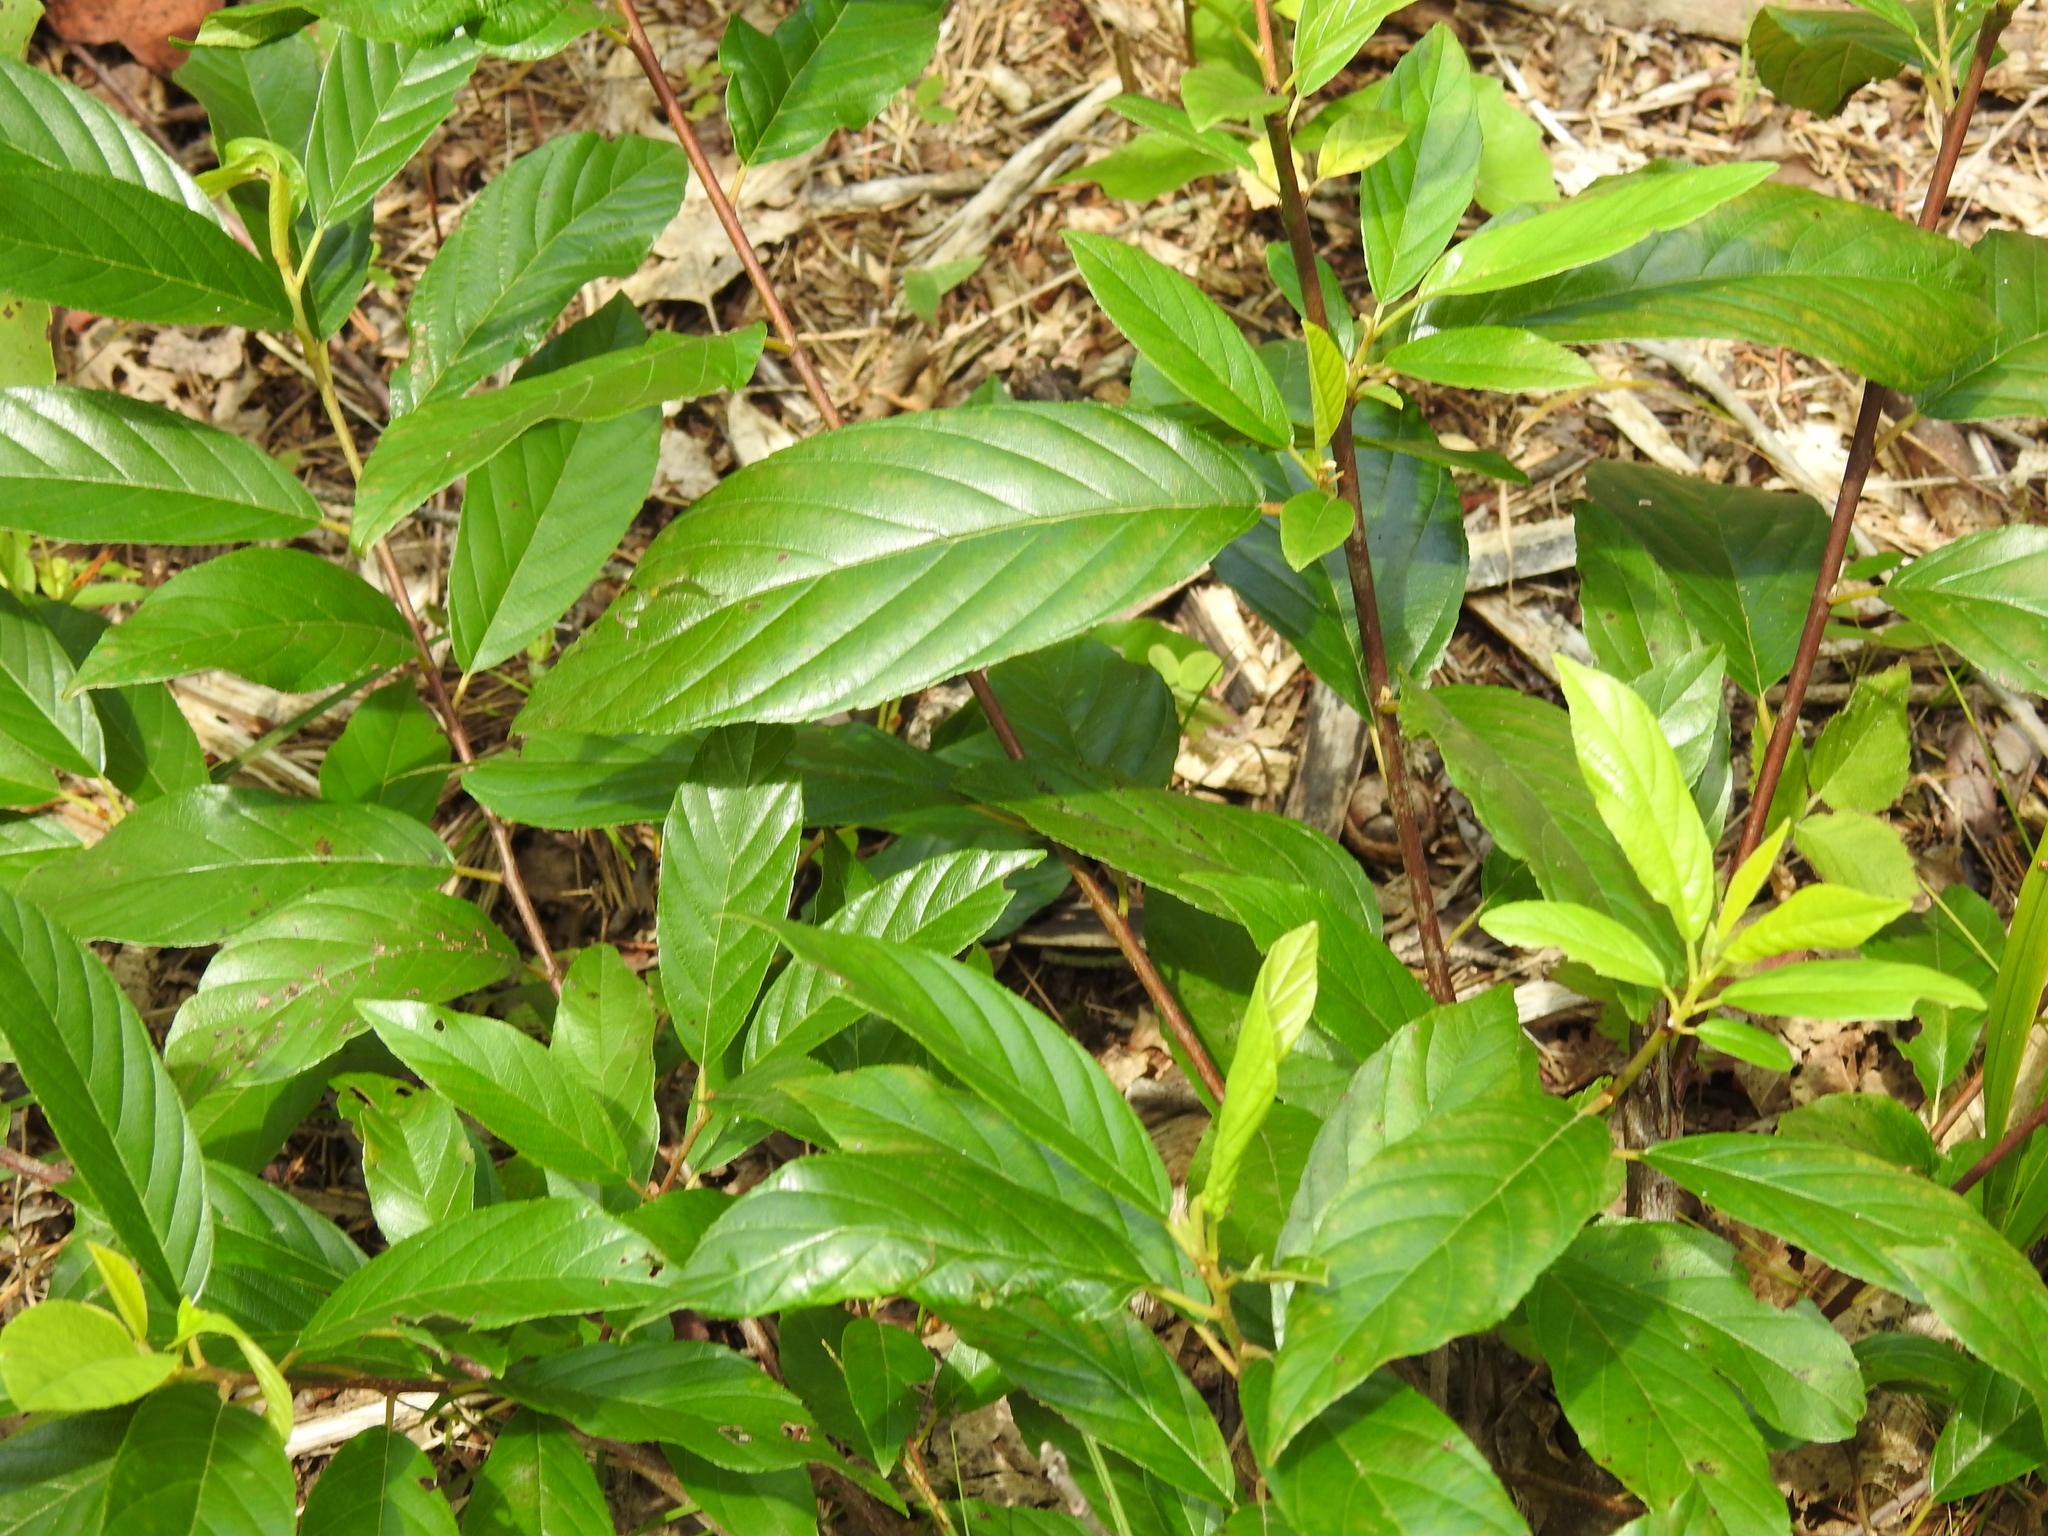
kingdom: Plantae
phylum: Tracheophyta
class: Magnoliopsida
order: Rosales
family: Rhamnaceae
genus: Frangula
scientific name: Frangula caroliniana
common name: Carolina buckthorn
